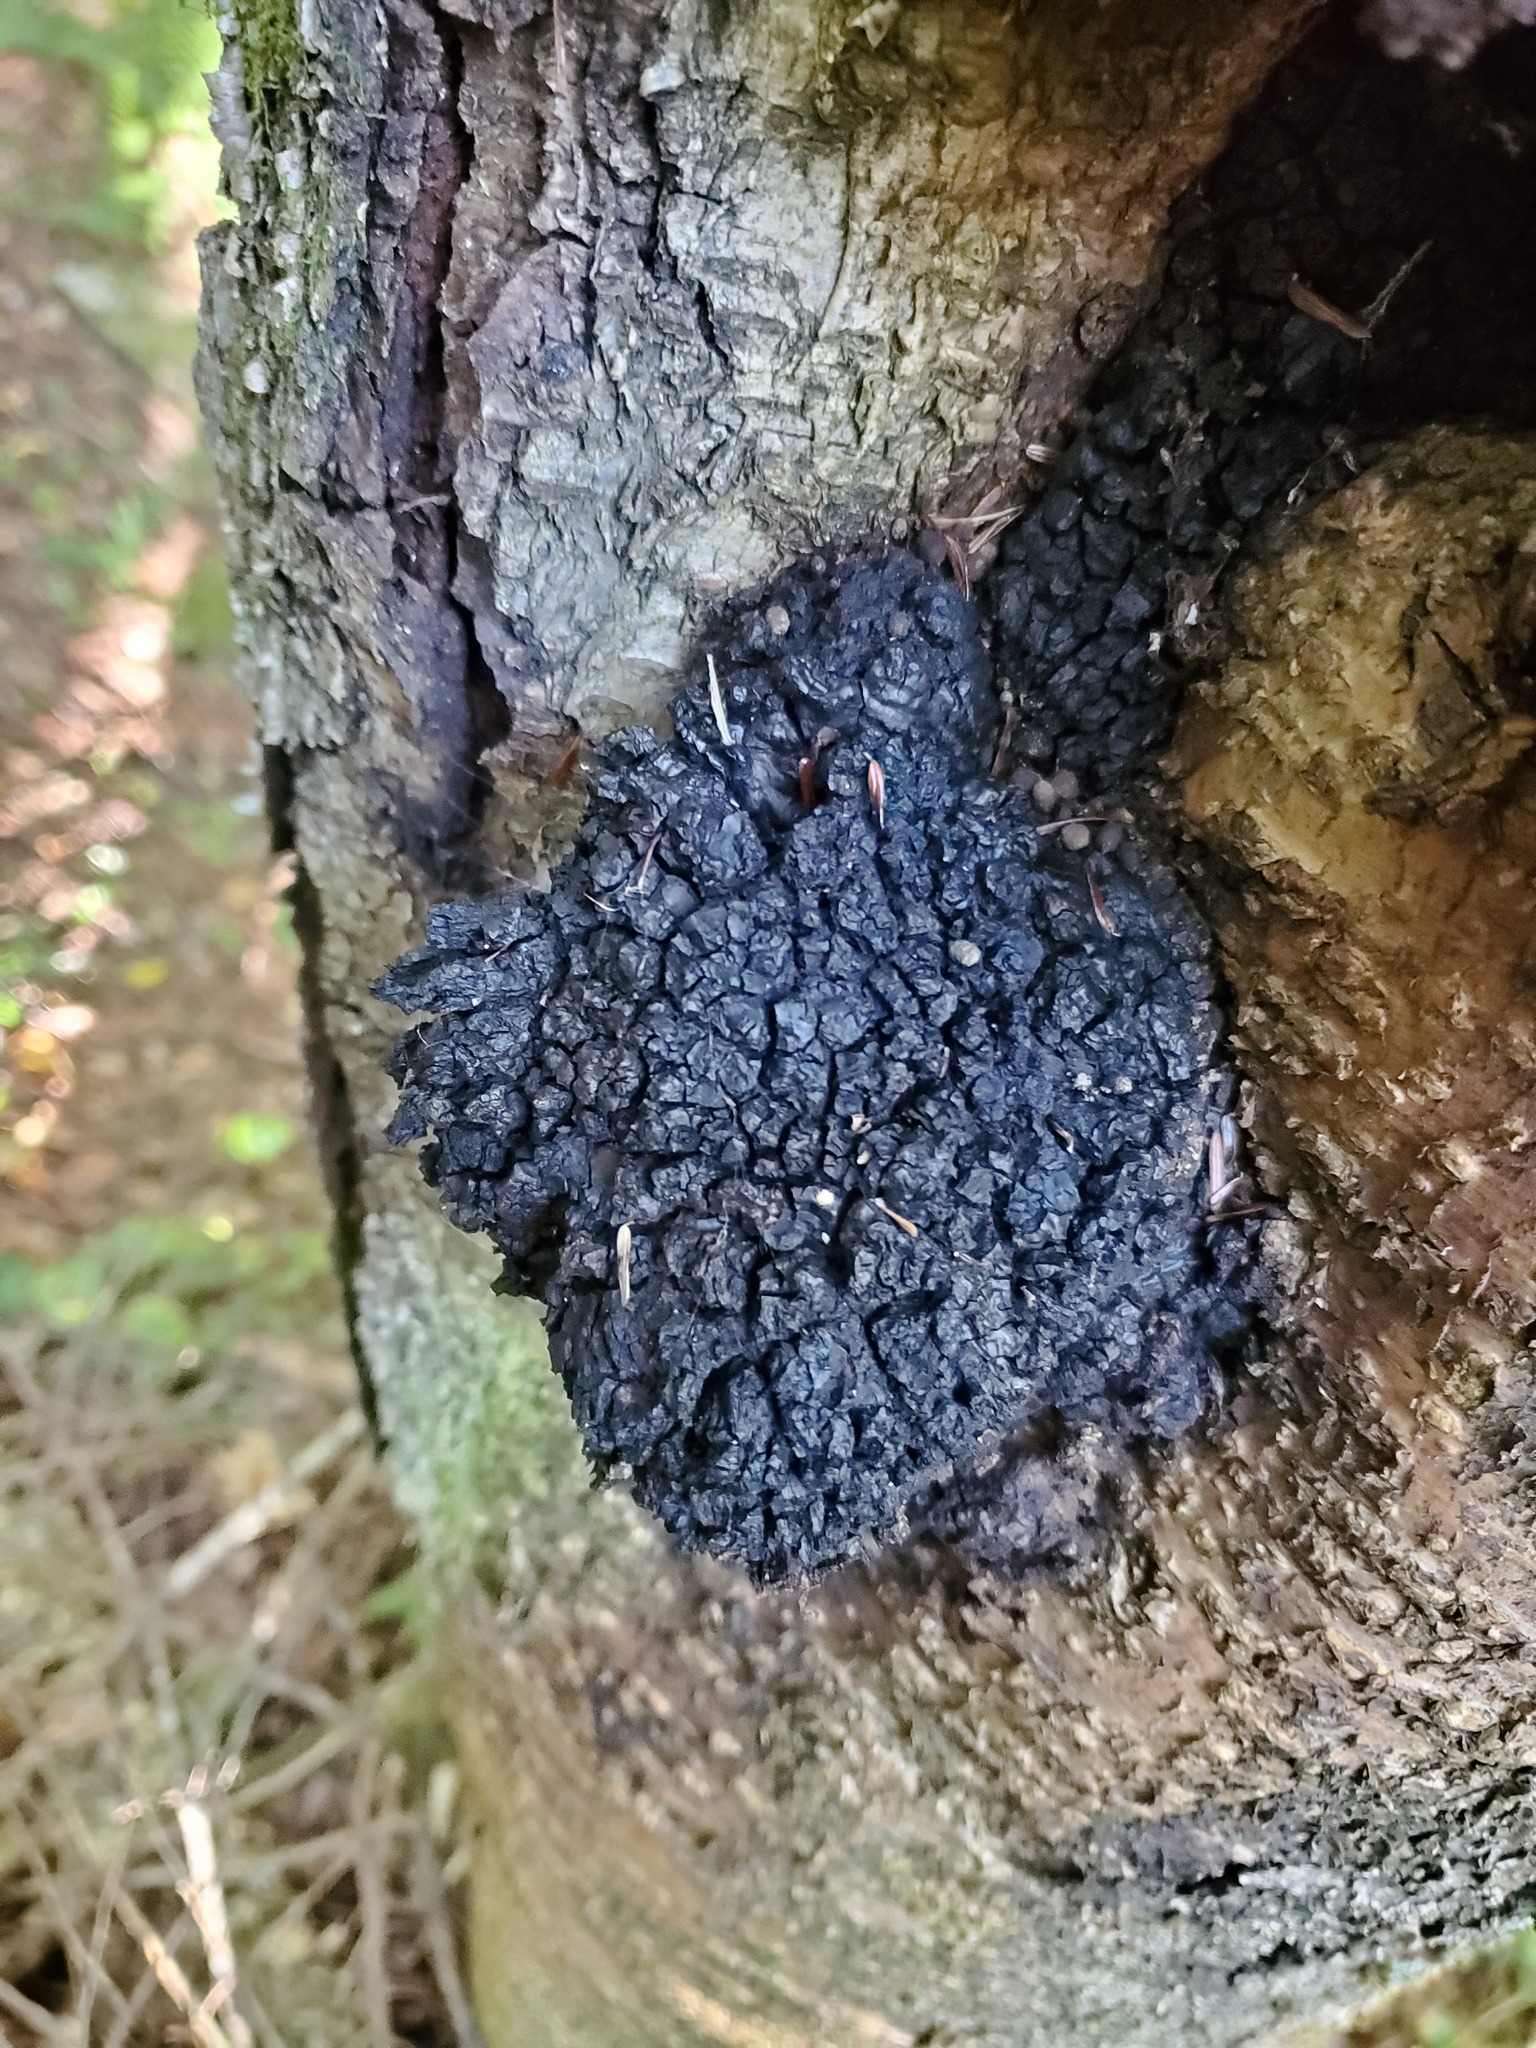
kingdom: Fungi
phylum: Basidiomycota
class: Agaricomycetes
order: Hymenochaetales
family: Hymenochaetaceae
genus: Inonotus
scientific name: Inonotus obliquus
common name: Chaga
